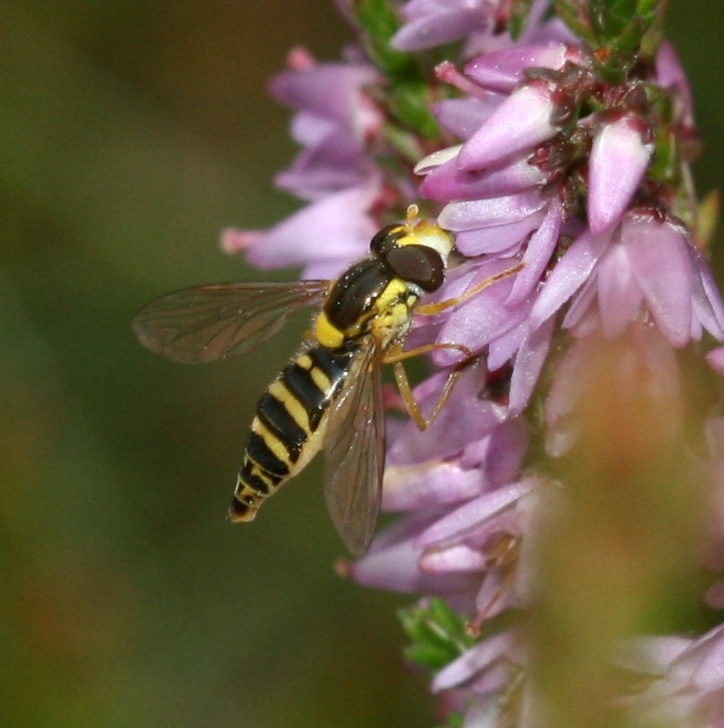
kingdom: Animalia
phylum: Arthropoda
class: Insecta
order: Diptera
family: Syrphidae
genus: Sphaerophoria
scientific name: Sphaerophoria
